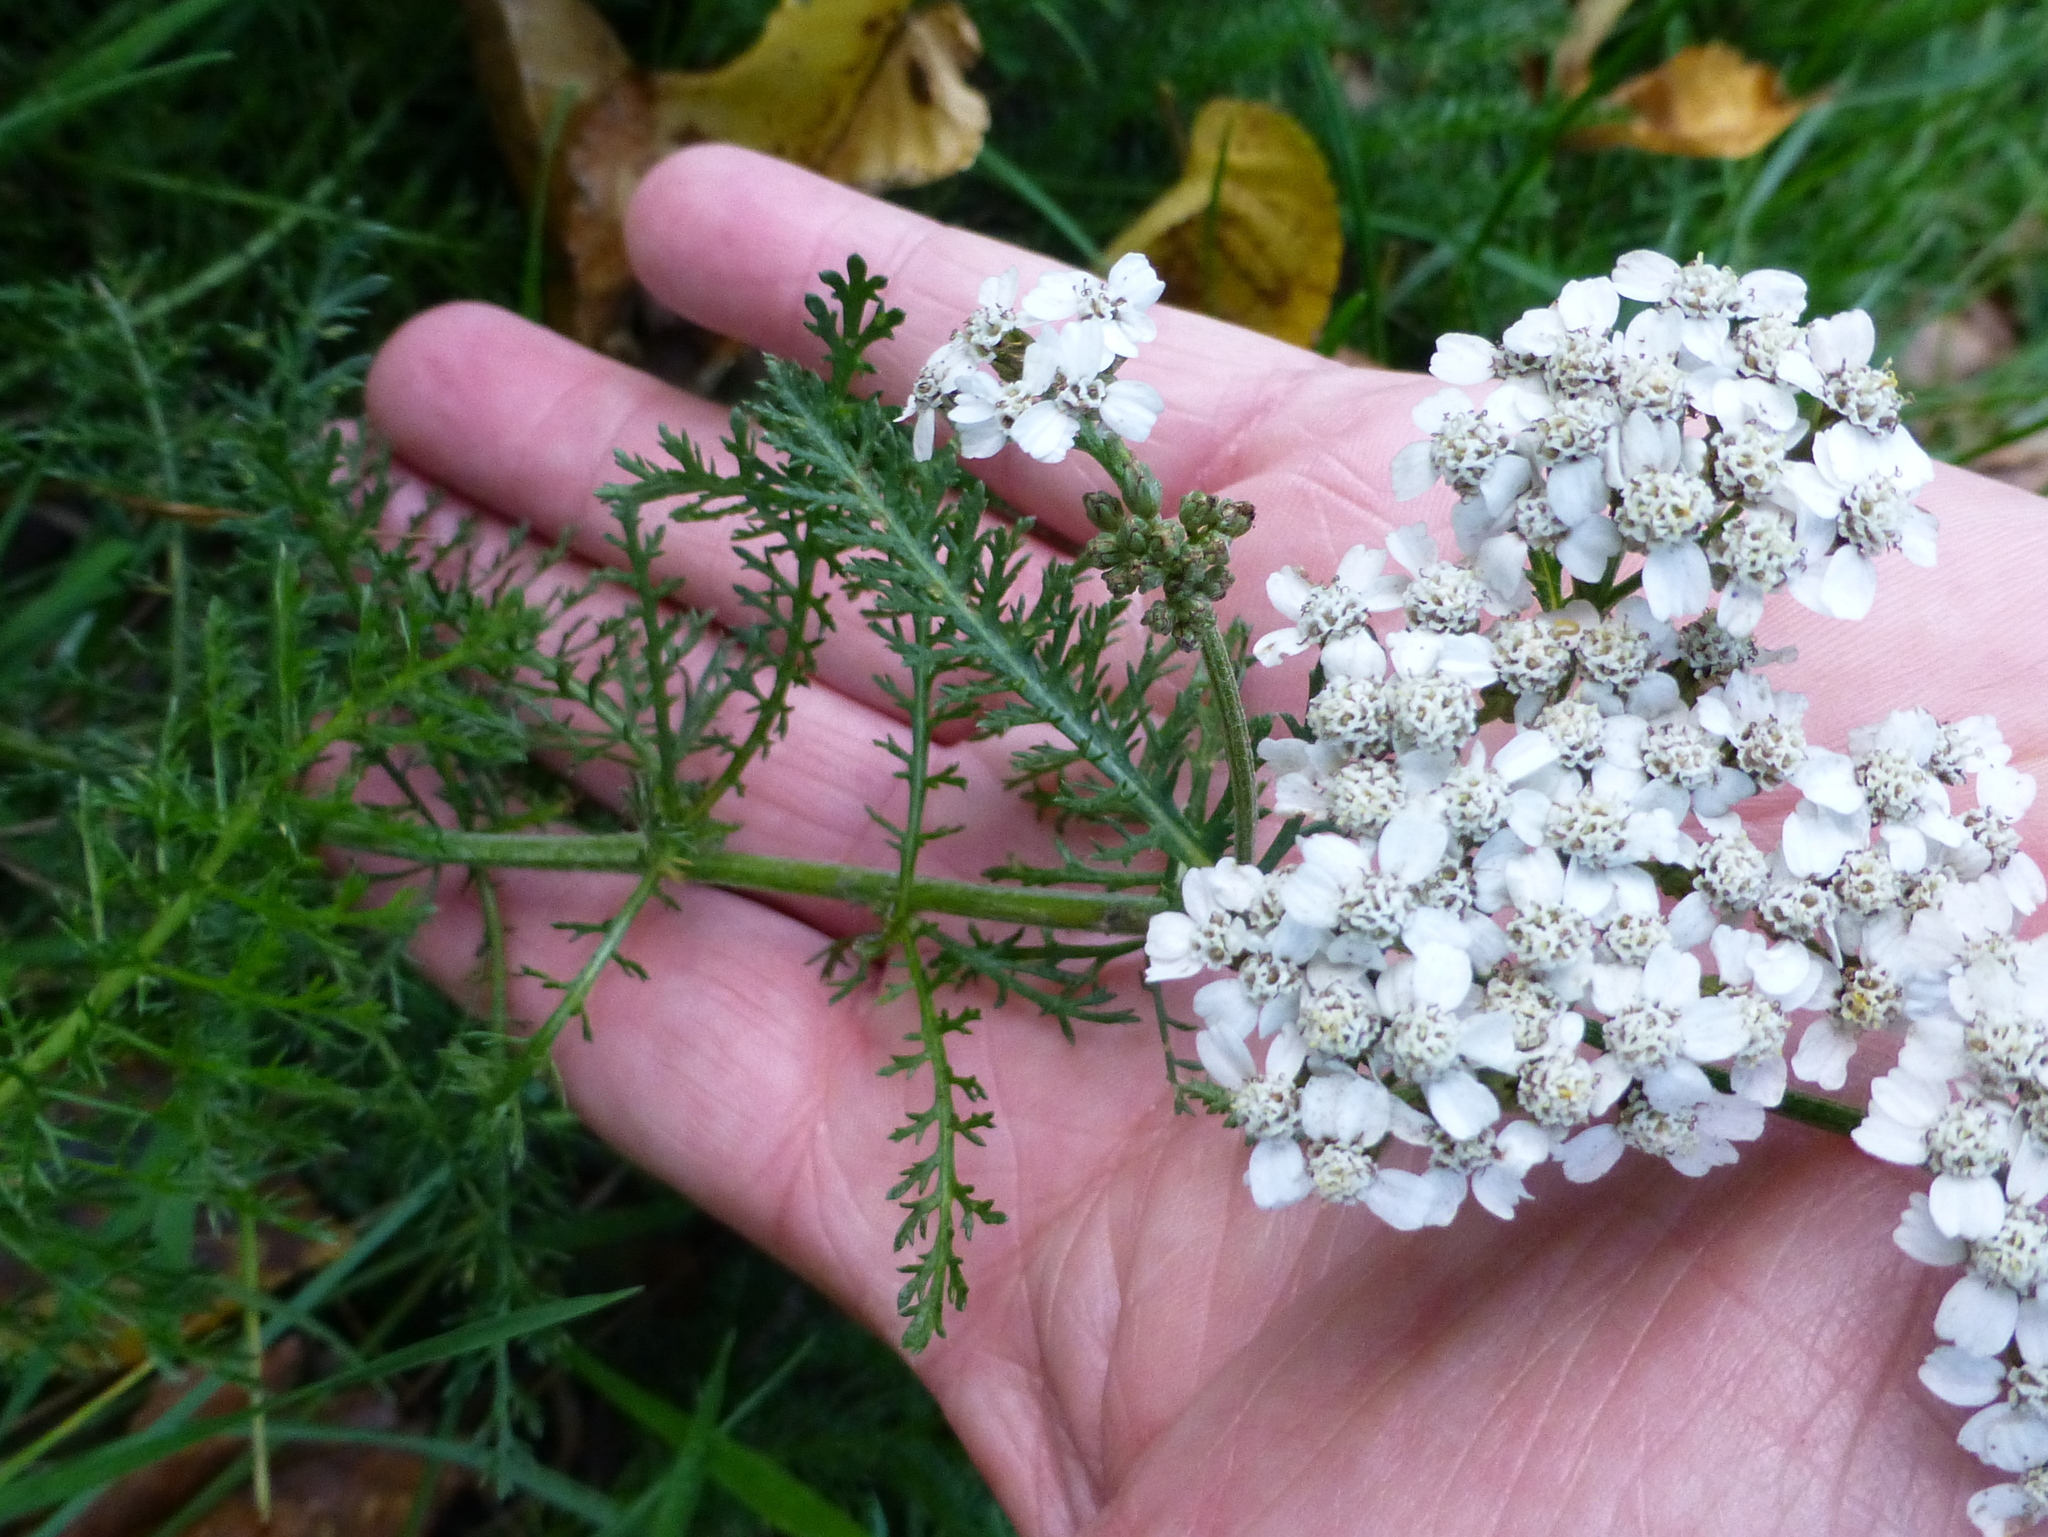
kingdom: Plantae
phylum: Tracheophyta
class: Magnoliopsida
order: Asterales
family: Asteraceae
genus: Achillea
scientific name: Achillea millefolium
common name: Yarrow
